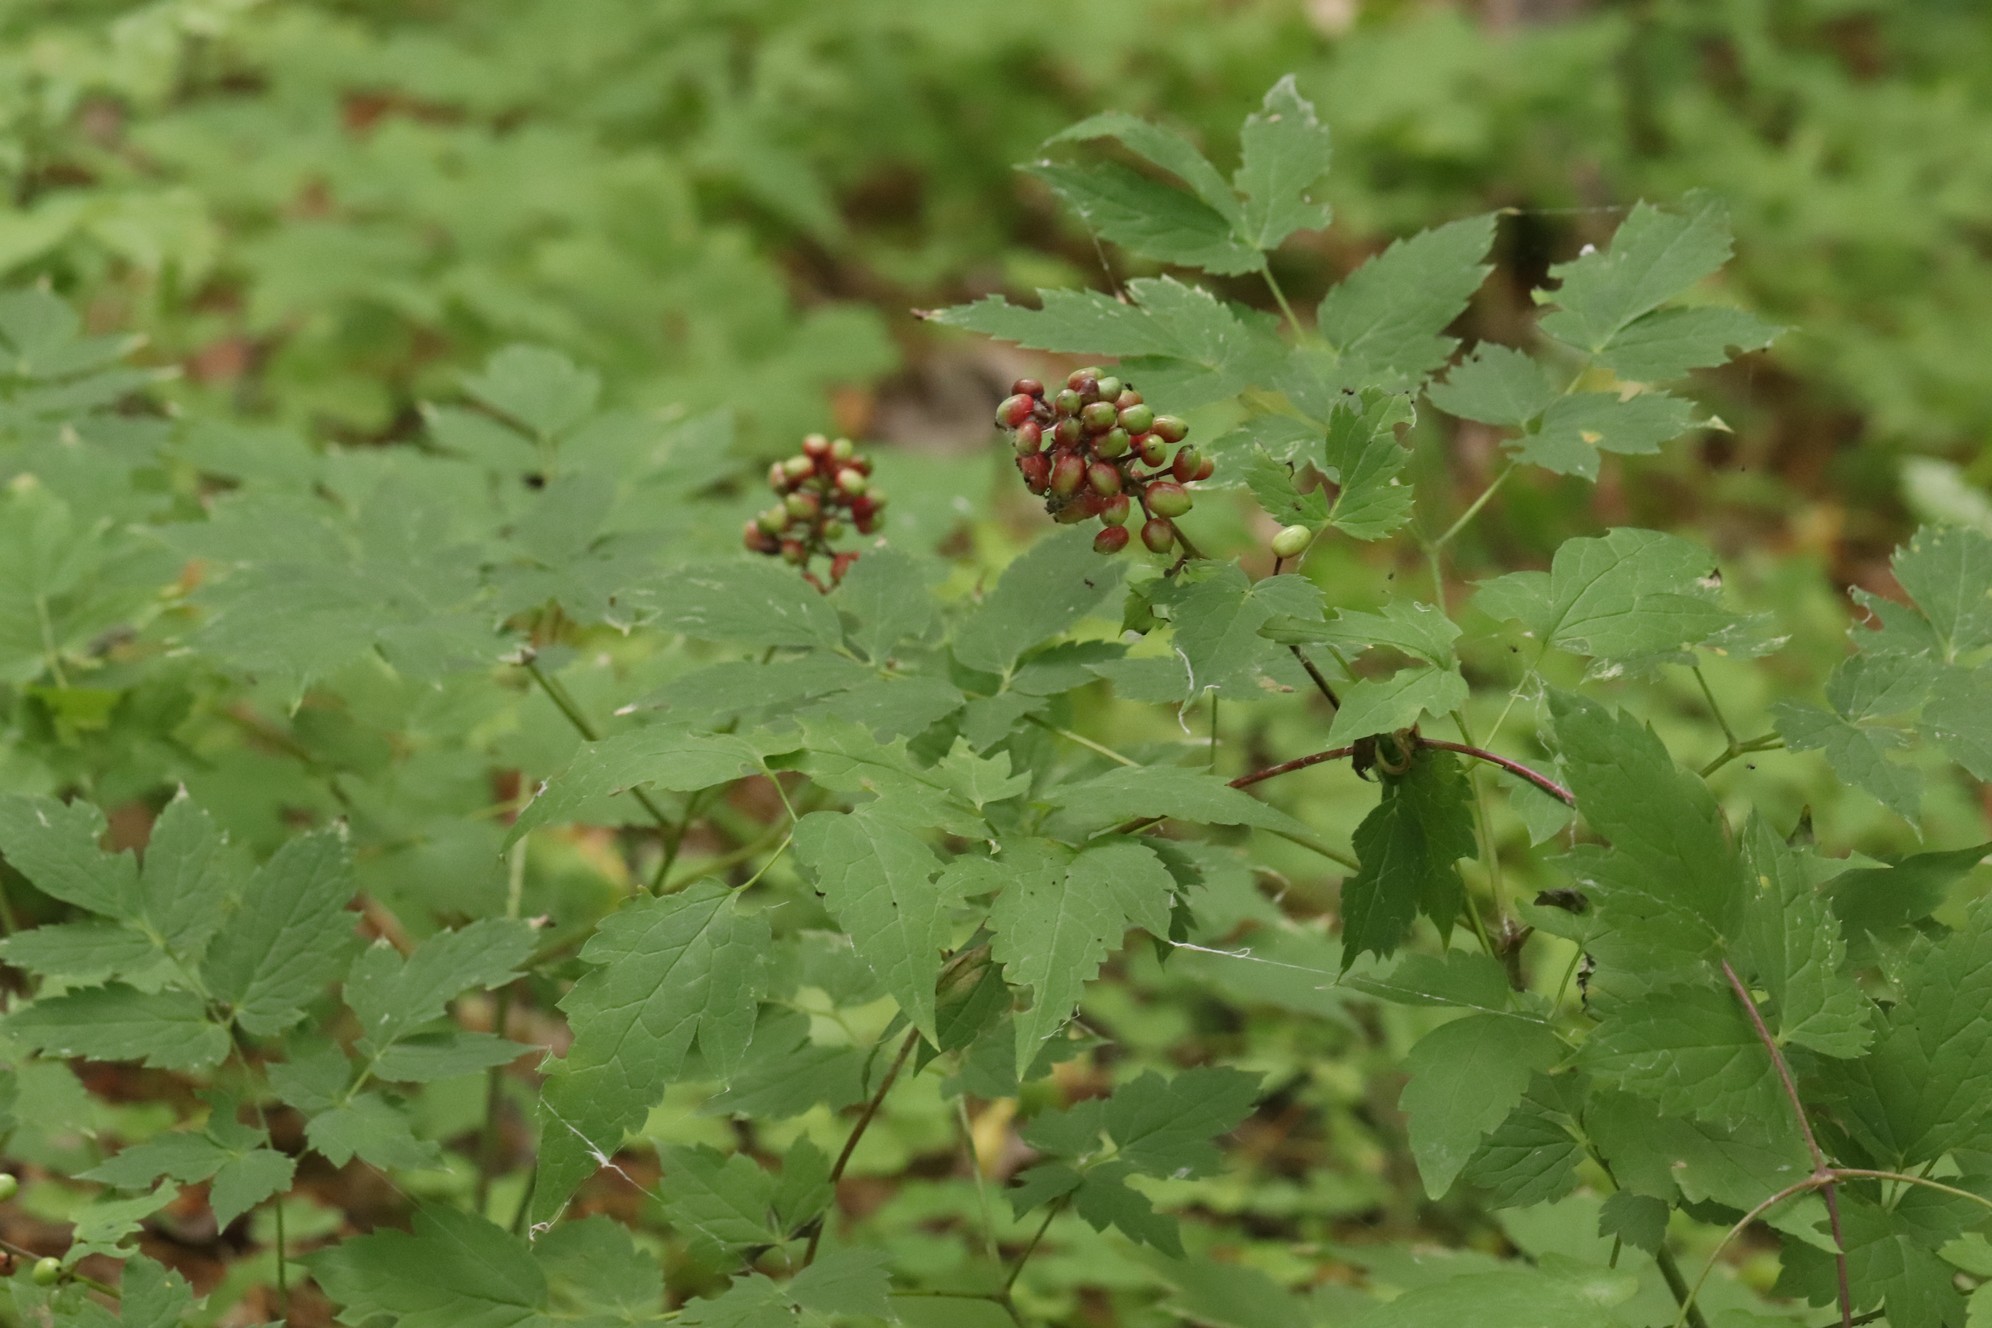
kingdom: Plantae
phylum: Tracheophyta
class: Magnoliopsida
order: Ranunculales
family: Ranunculaceae
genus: Actaea
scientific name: Actaea erythrocarpa
